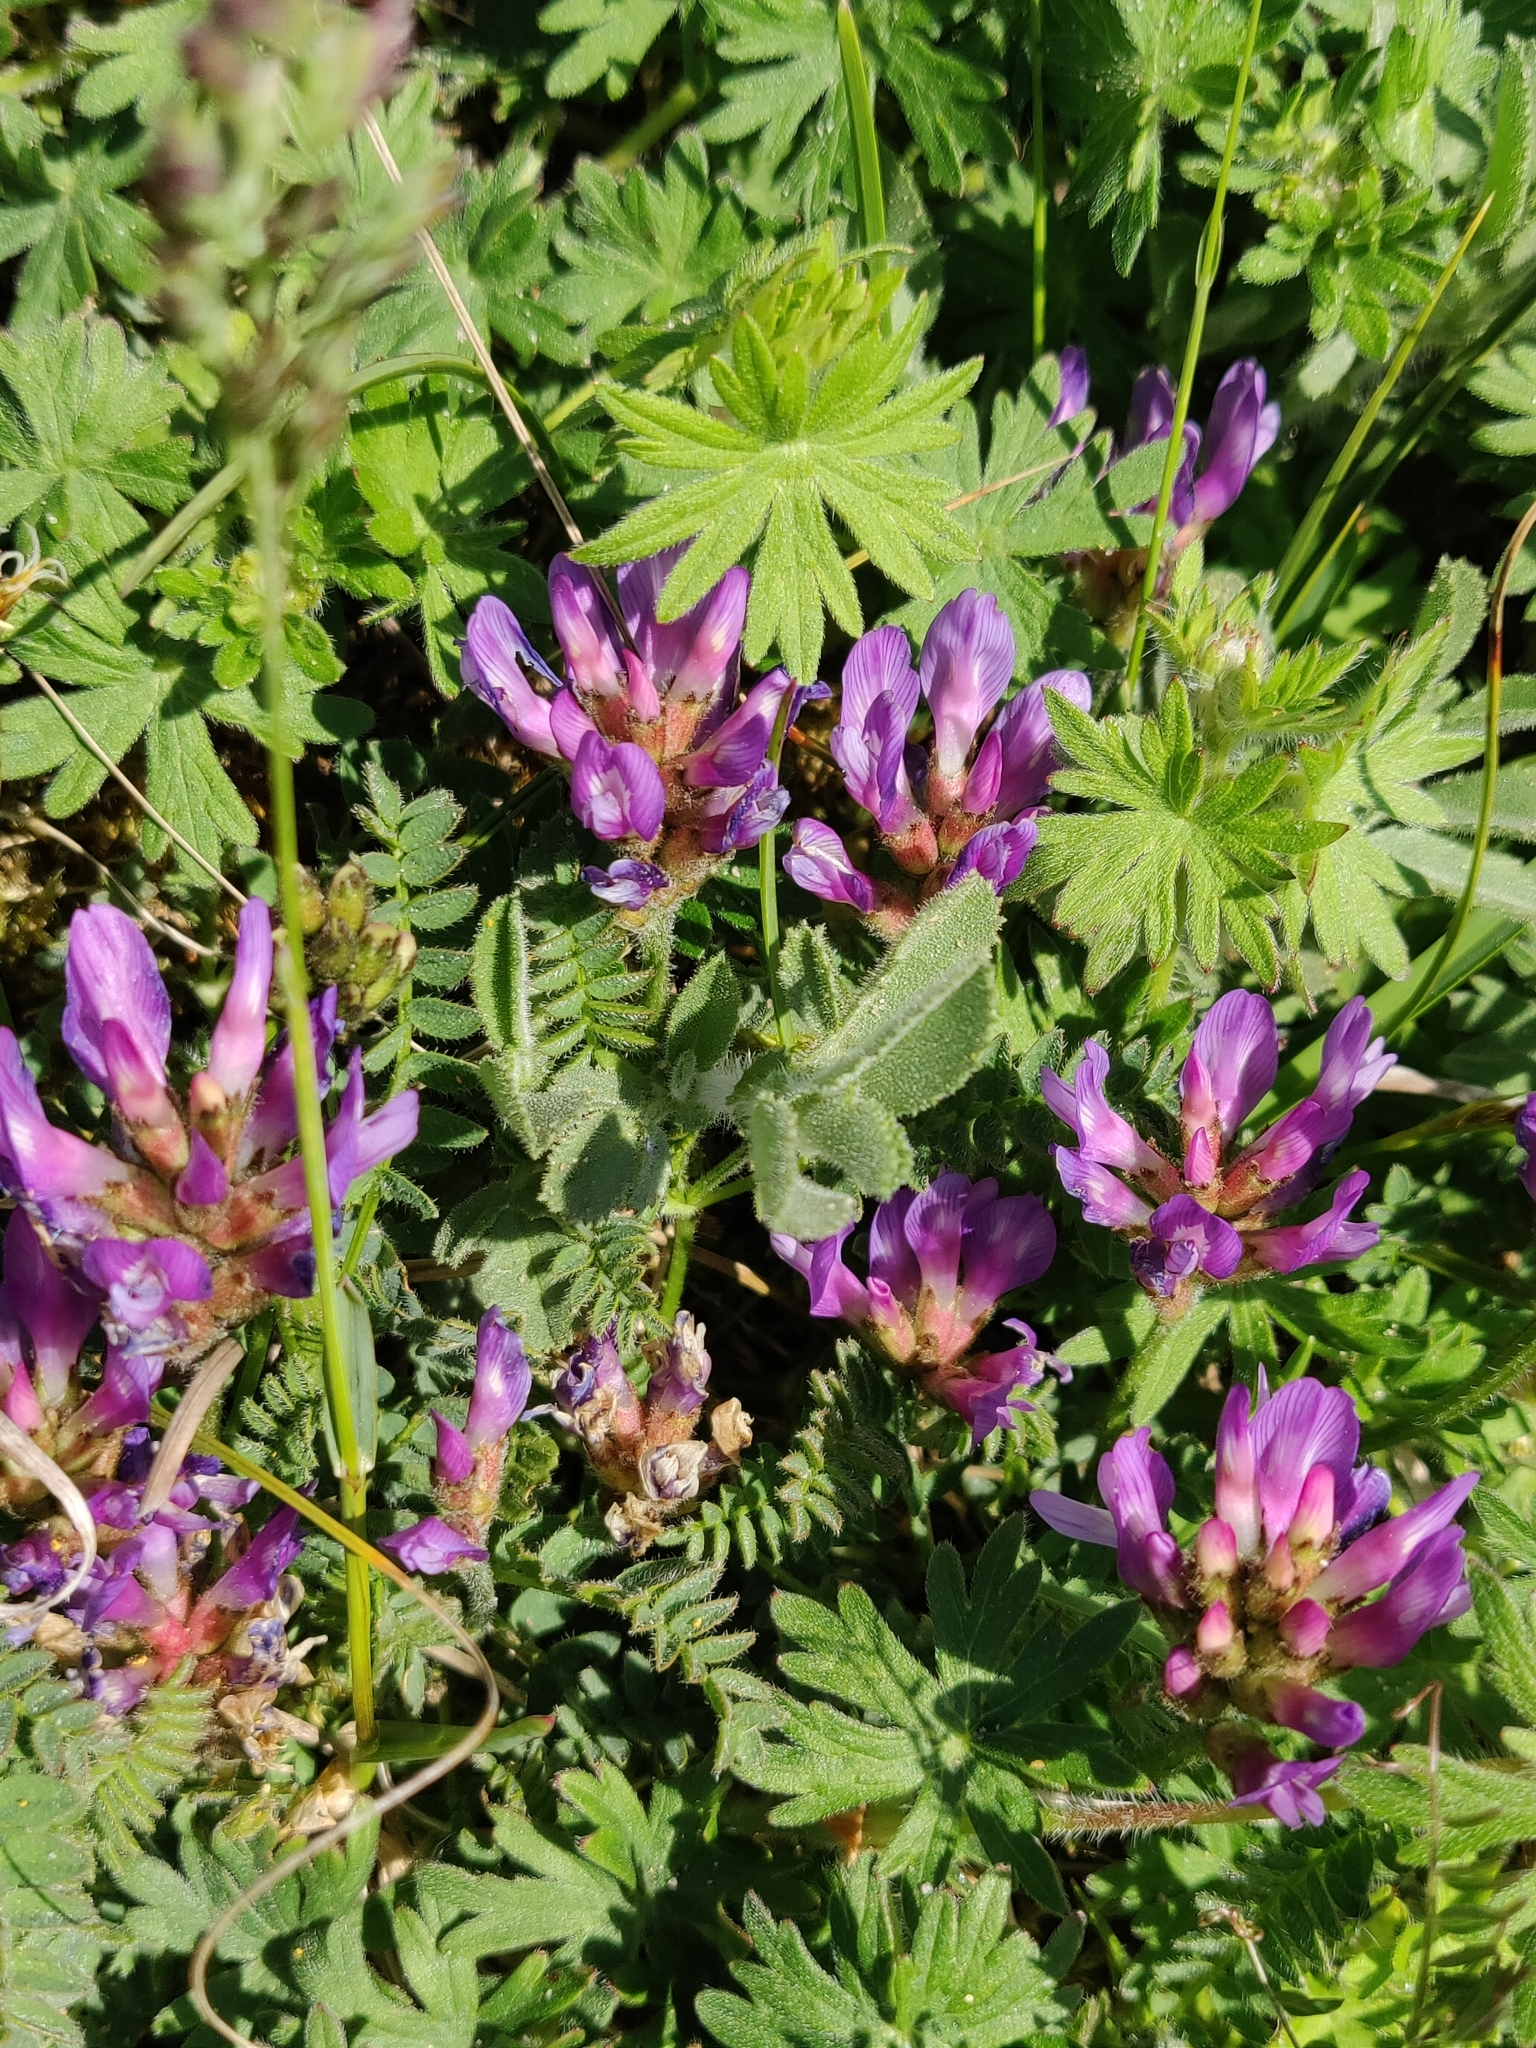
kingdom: Plantae
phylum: Tracheophyta
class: Magnoliopsida
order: Fabales
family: Fabaceae
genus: Astragalus
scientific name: Astragalus danicus
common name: Purple milk-vetch
